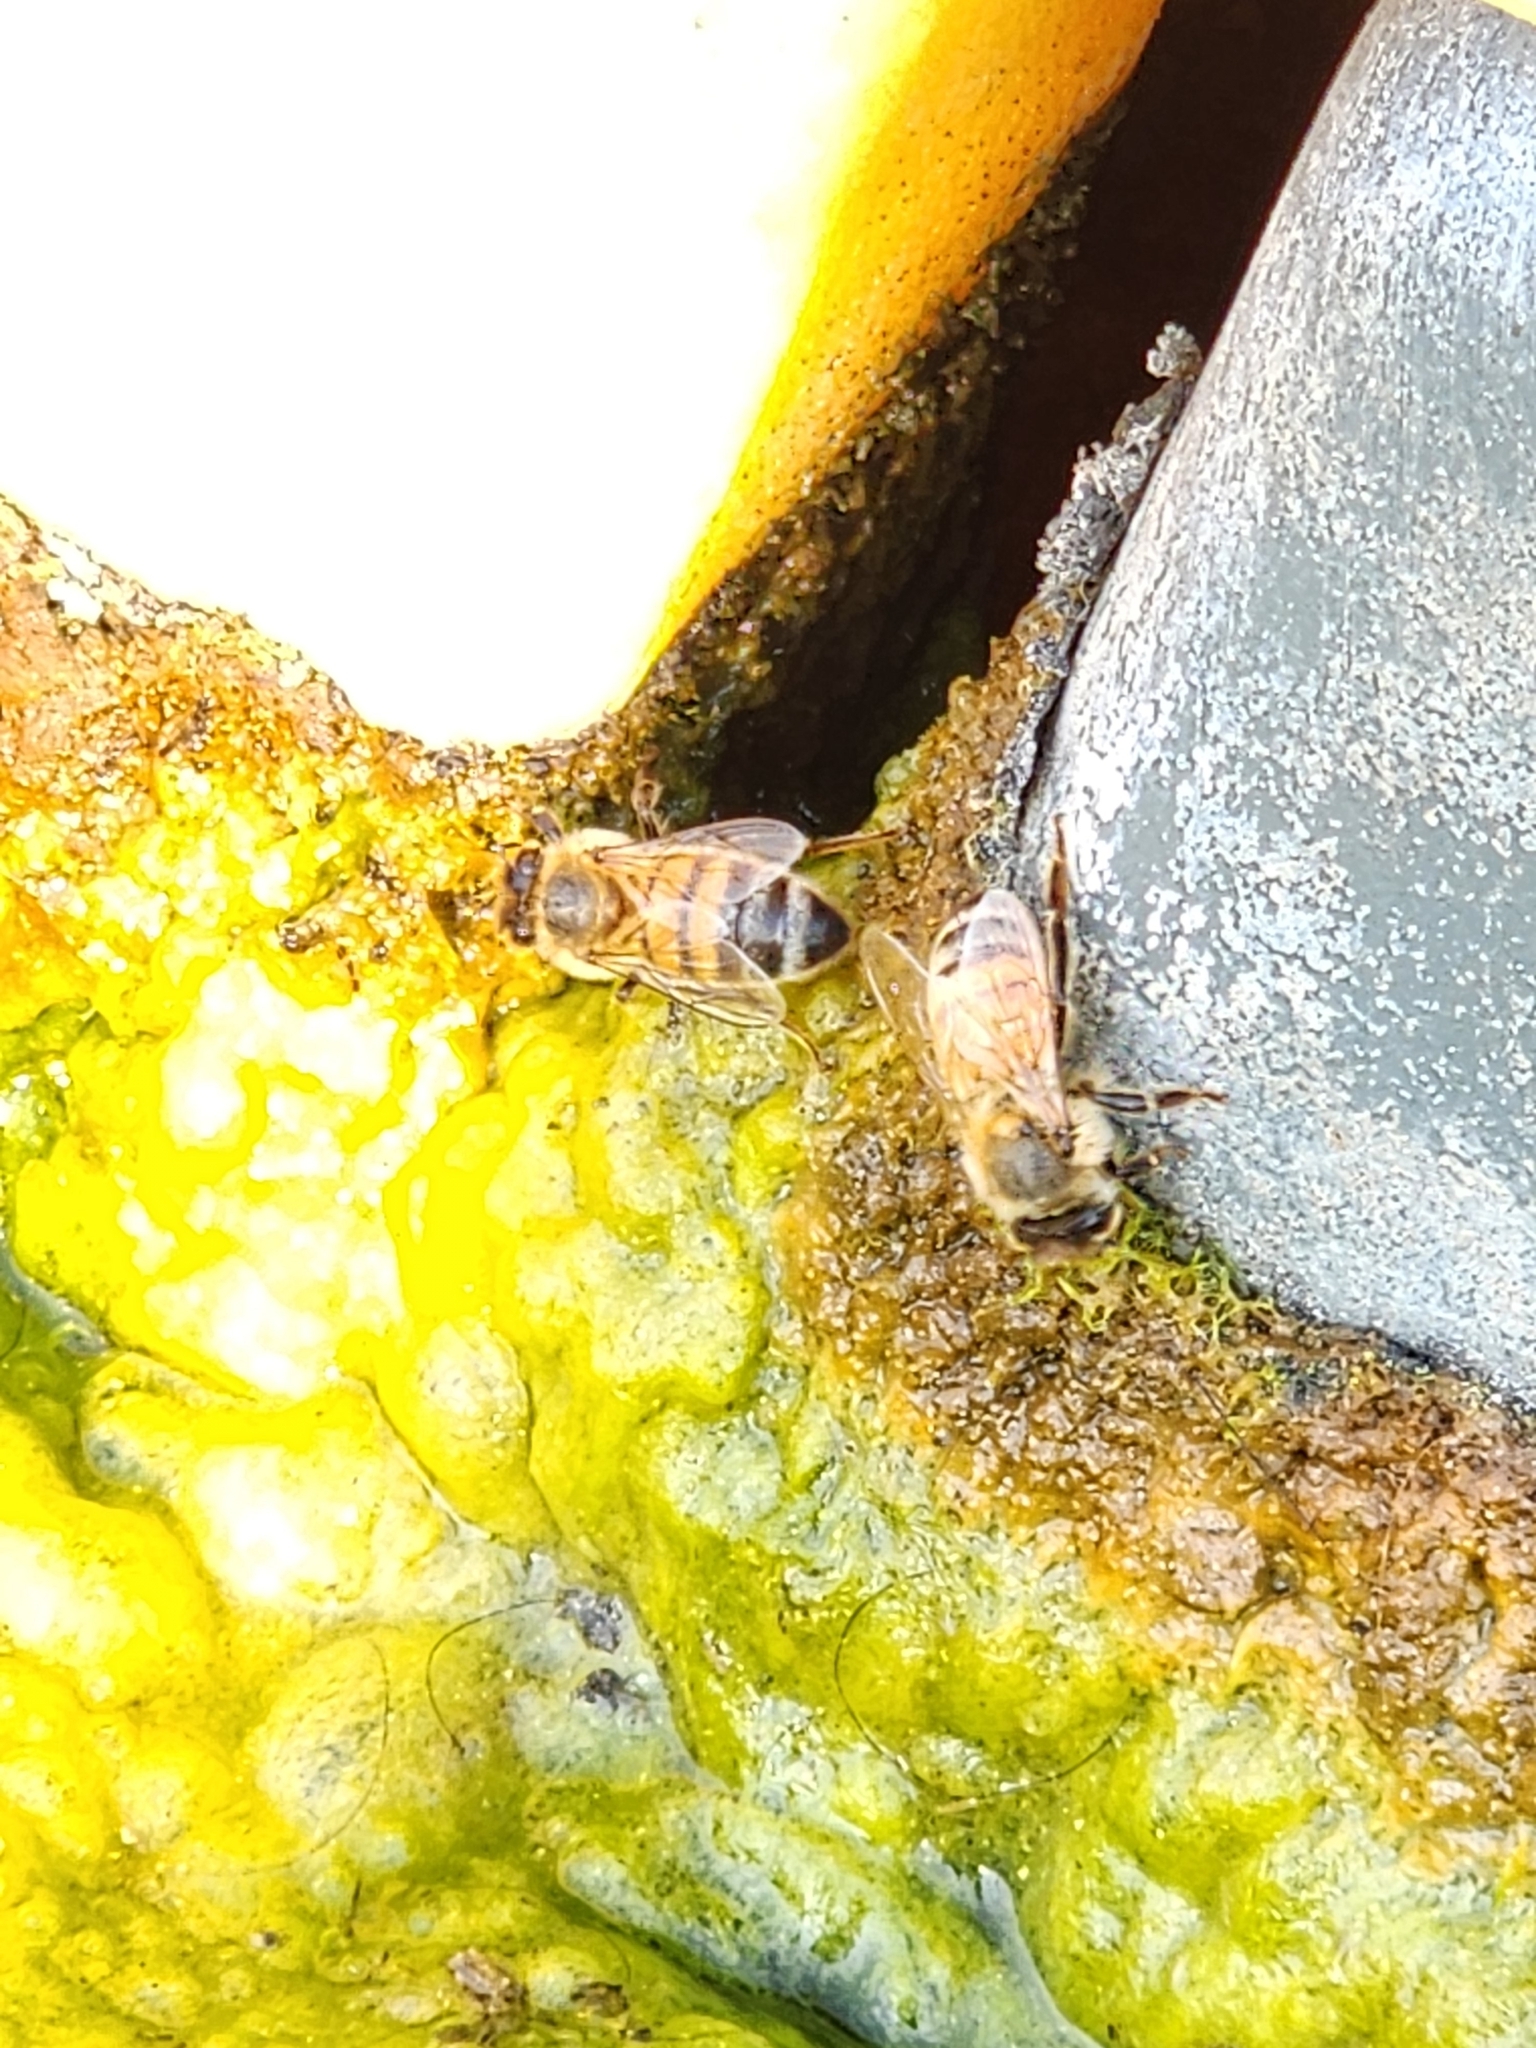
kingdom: Animalia
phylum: Arthropoda
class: Insecta
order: Hymenoptera
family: Apidae
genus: Apis
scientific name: Apis mellifera
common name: Honey bee
